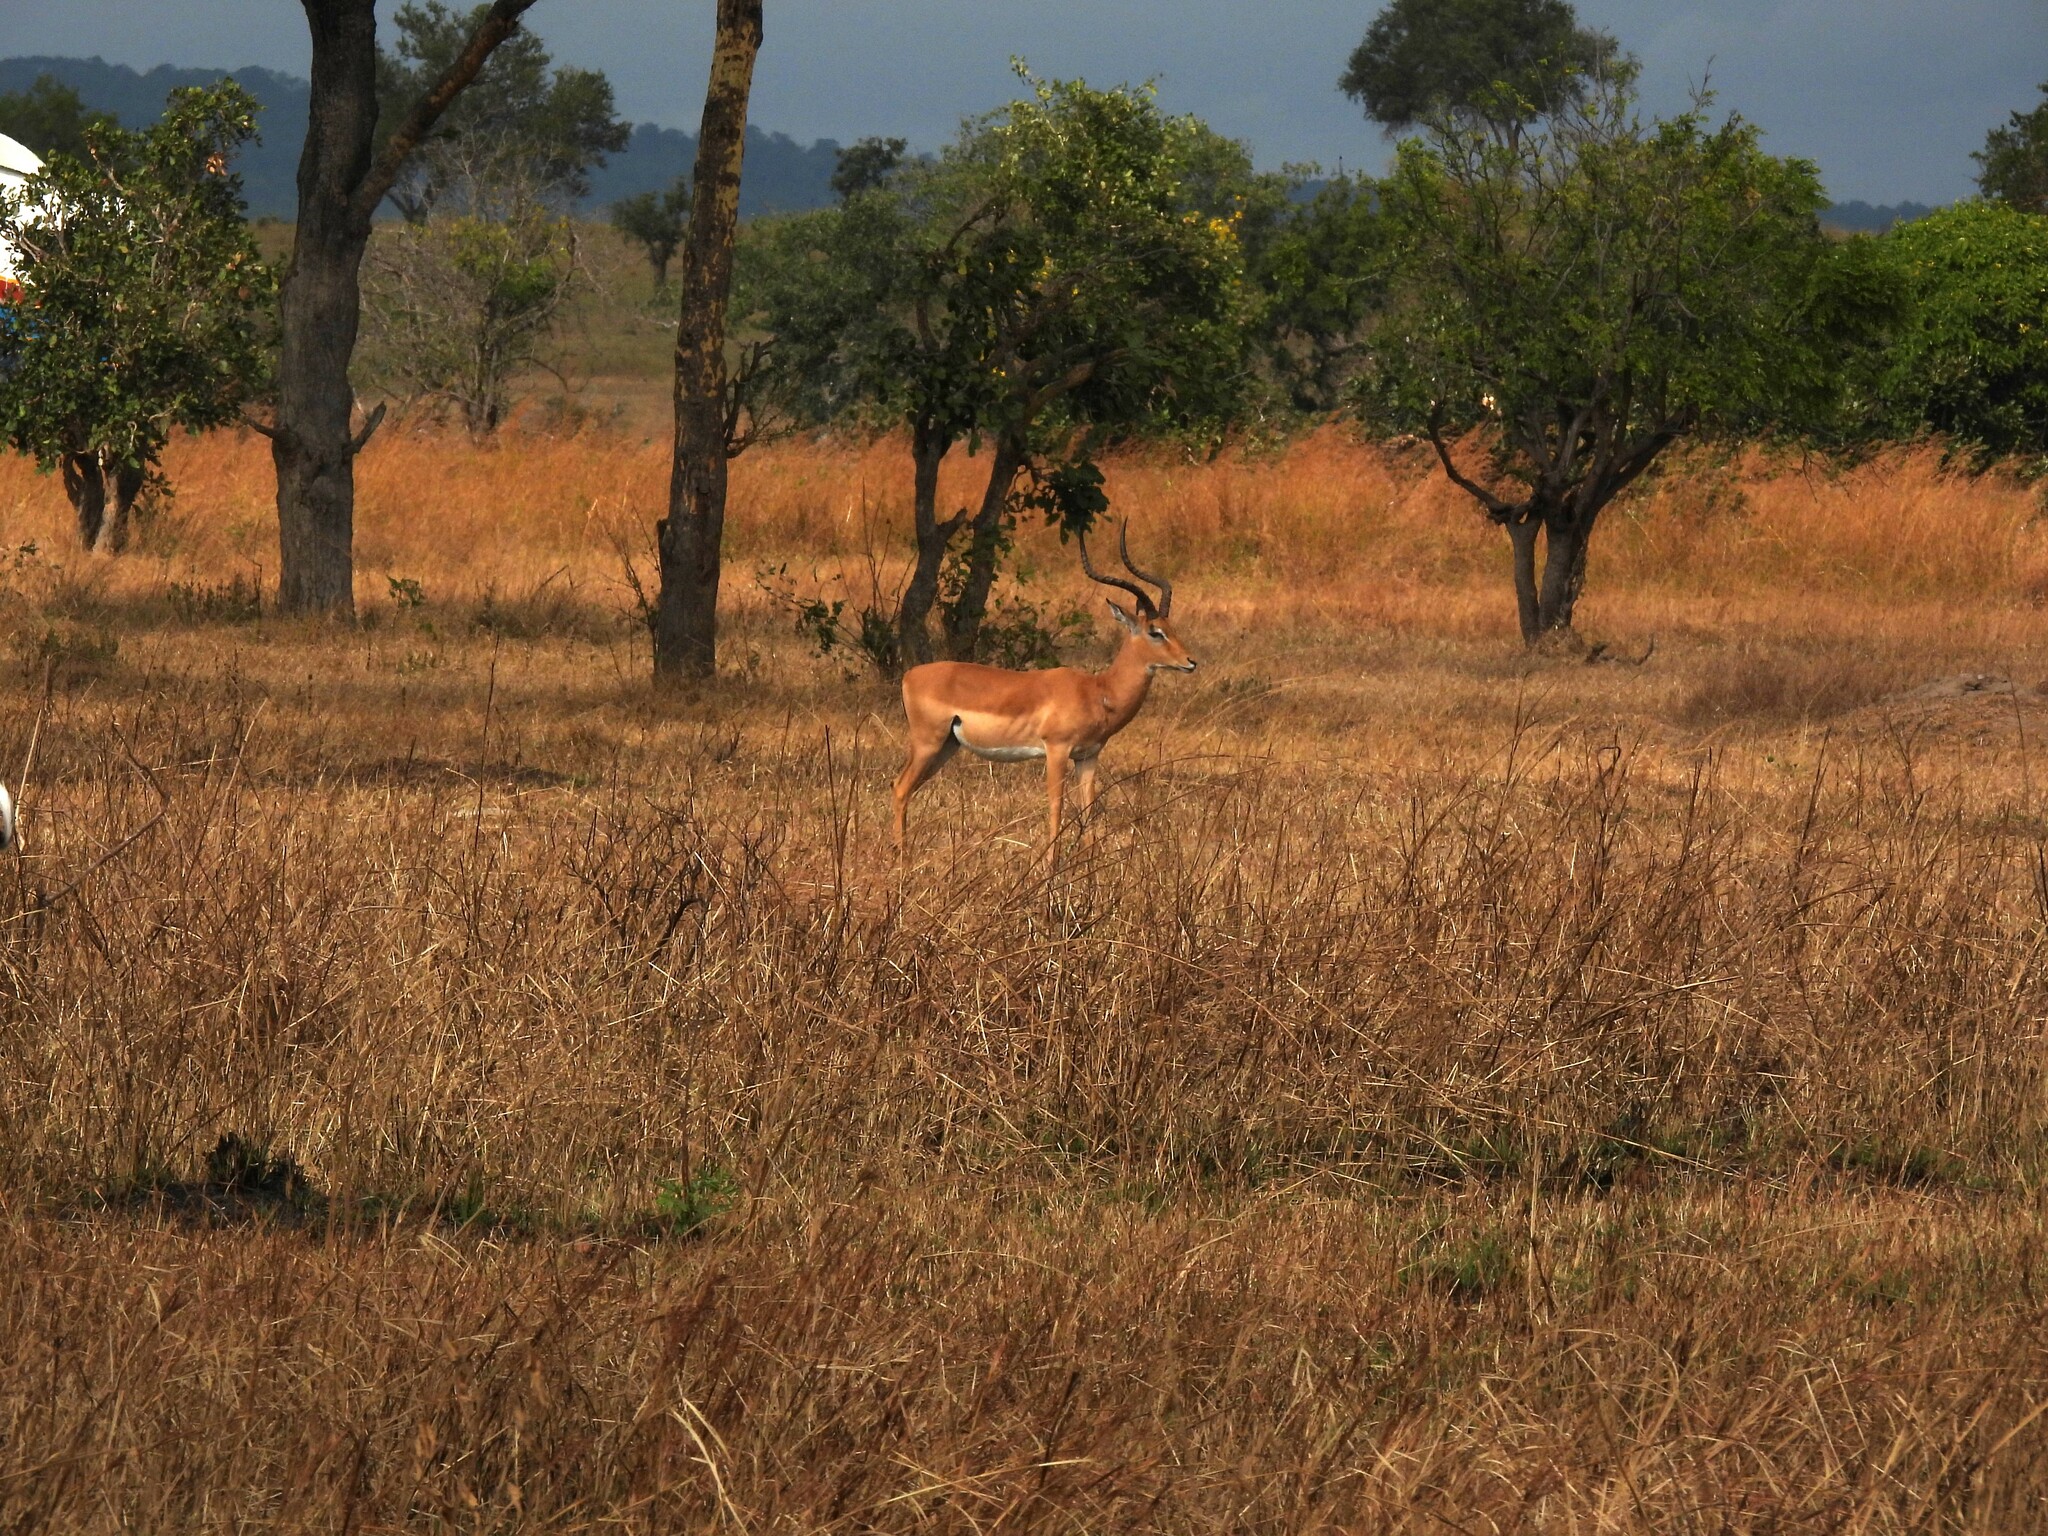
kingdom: Animalia
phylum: Chordata
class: Mammalia
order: Artiodactyla
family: Bovidae
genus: Aepyceros
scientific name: Aepyceros melampus
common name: Impala
